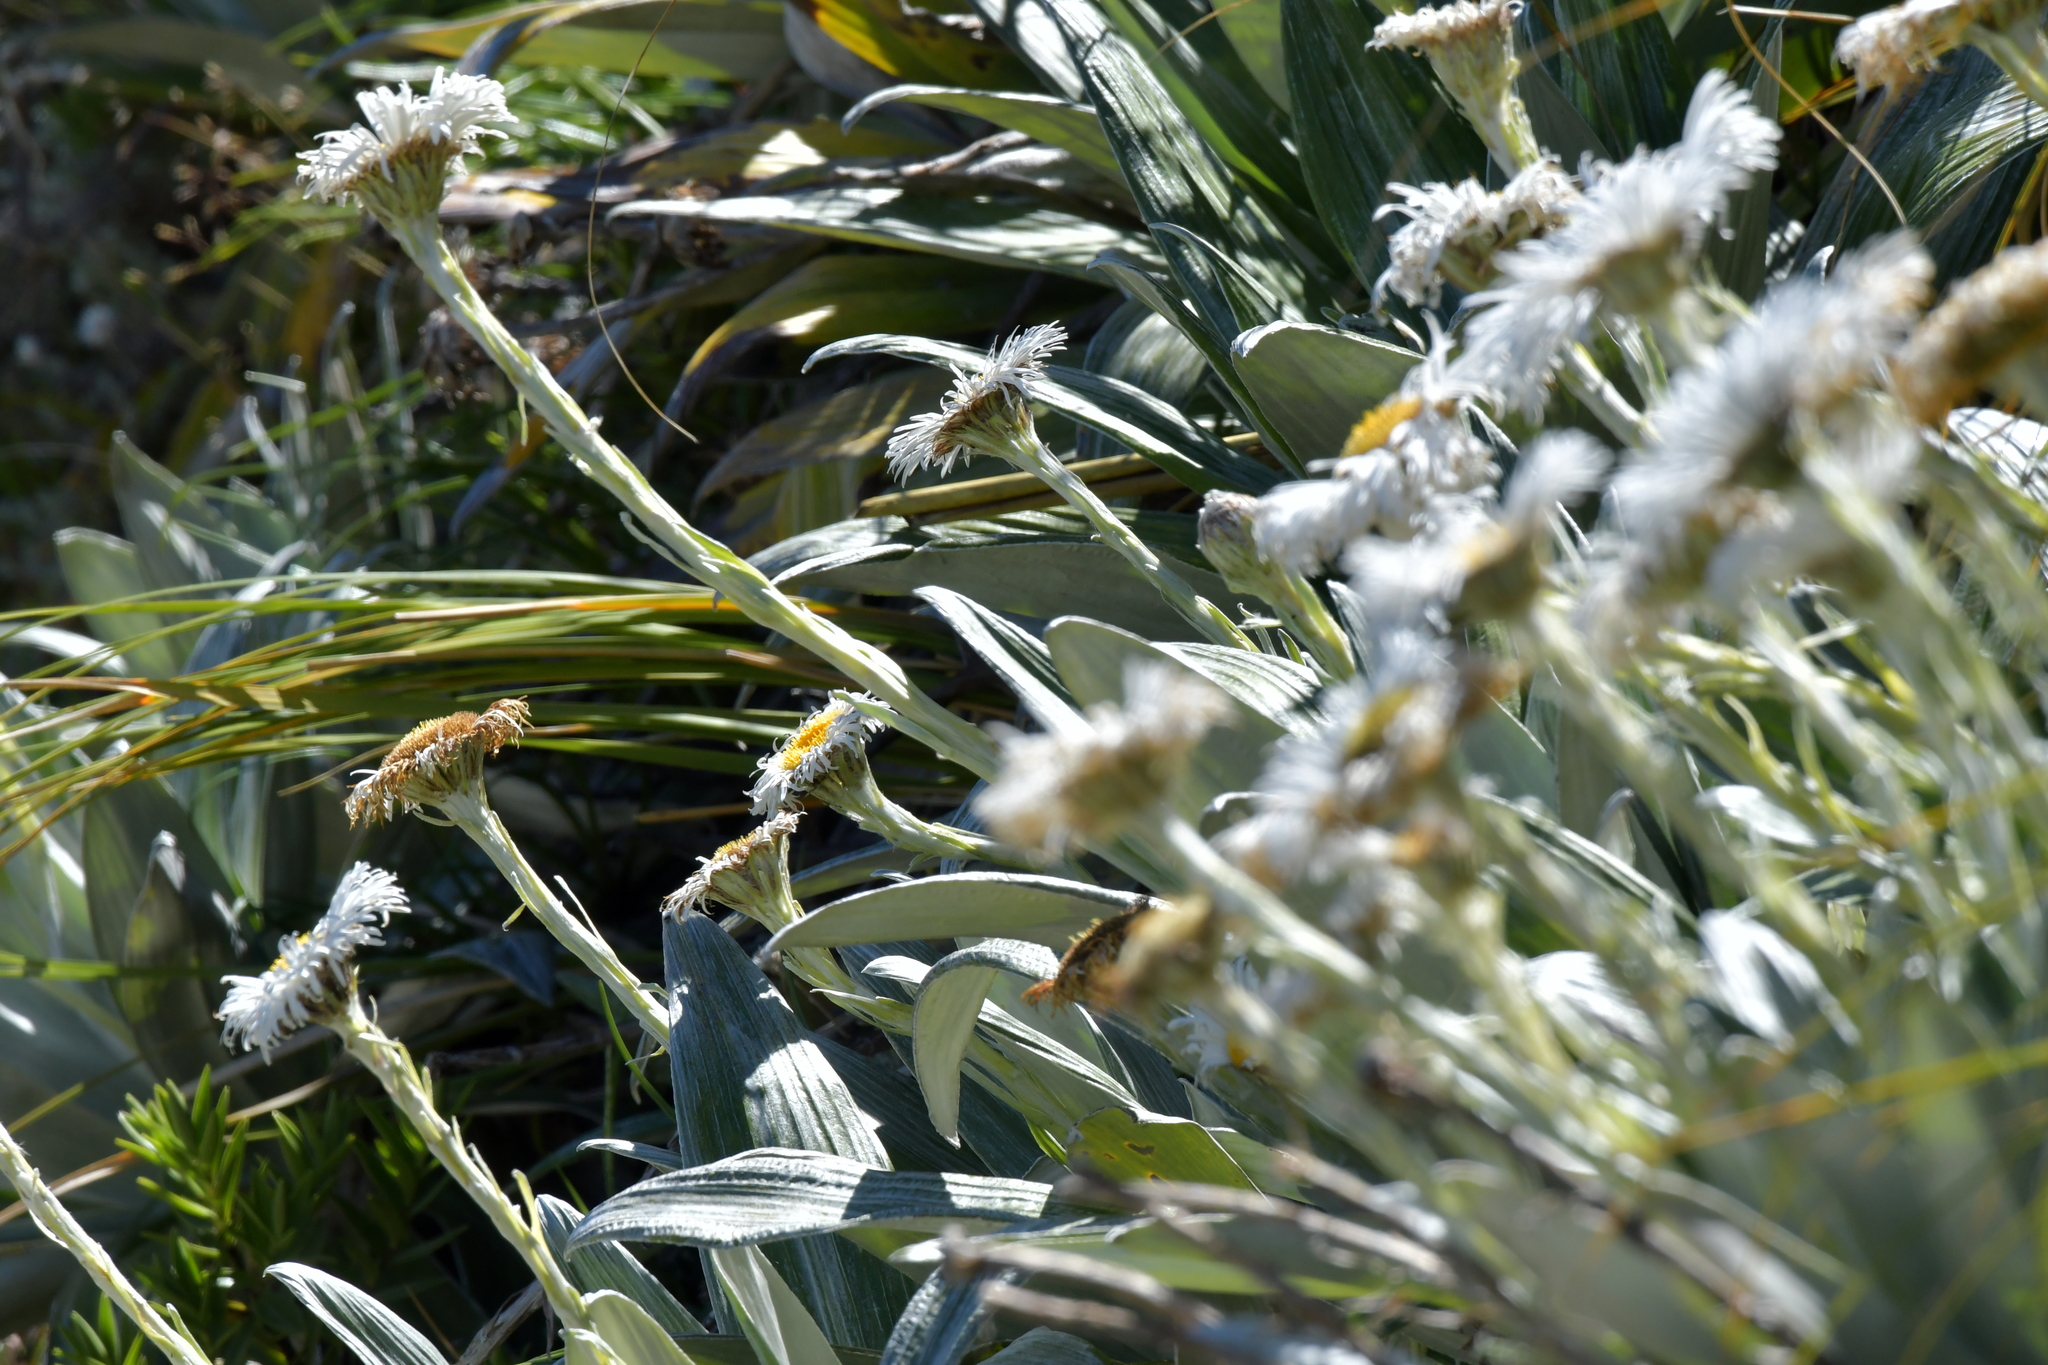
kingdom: Plantae
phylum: Tracheophyta
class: Magnoliopsida
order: Asterales
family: Asteraceae
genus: Celmisia
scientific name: Celmisia semicordata
